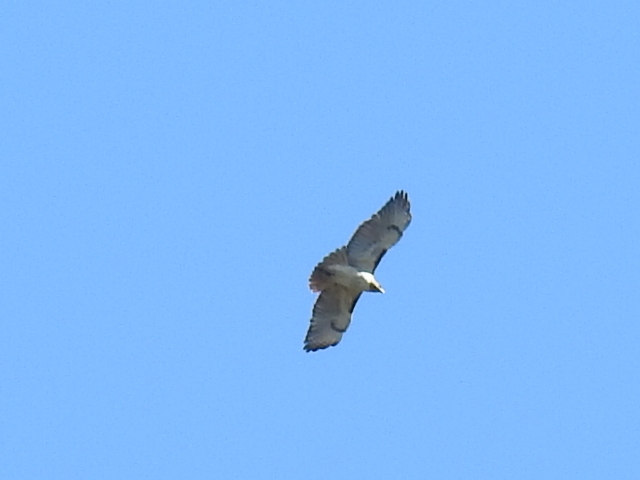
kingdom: Animalia
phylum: Chordata
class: Aves
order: Accipitriformes
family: Accipitridae
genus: Buteo
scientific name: Buteo jamaicensis
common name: Red-tailed hawk
